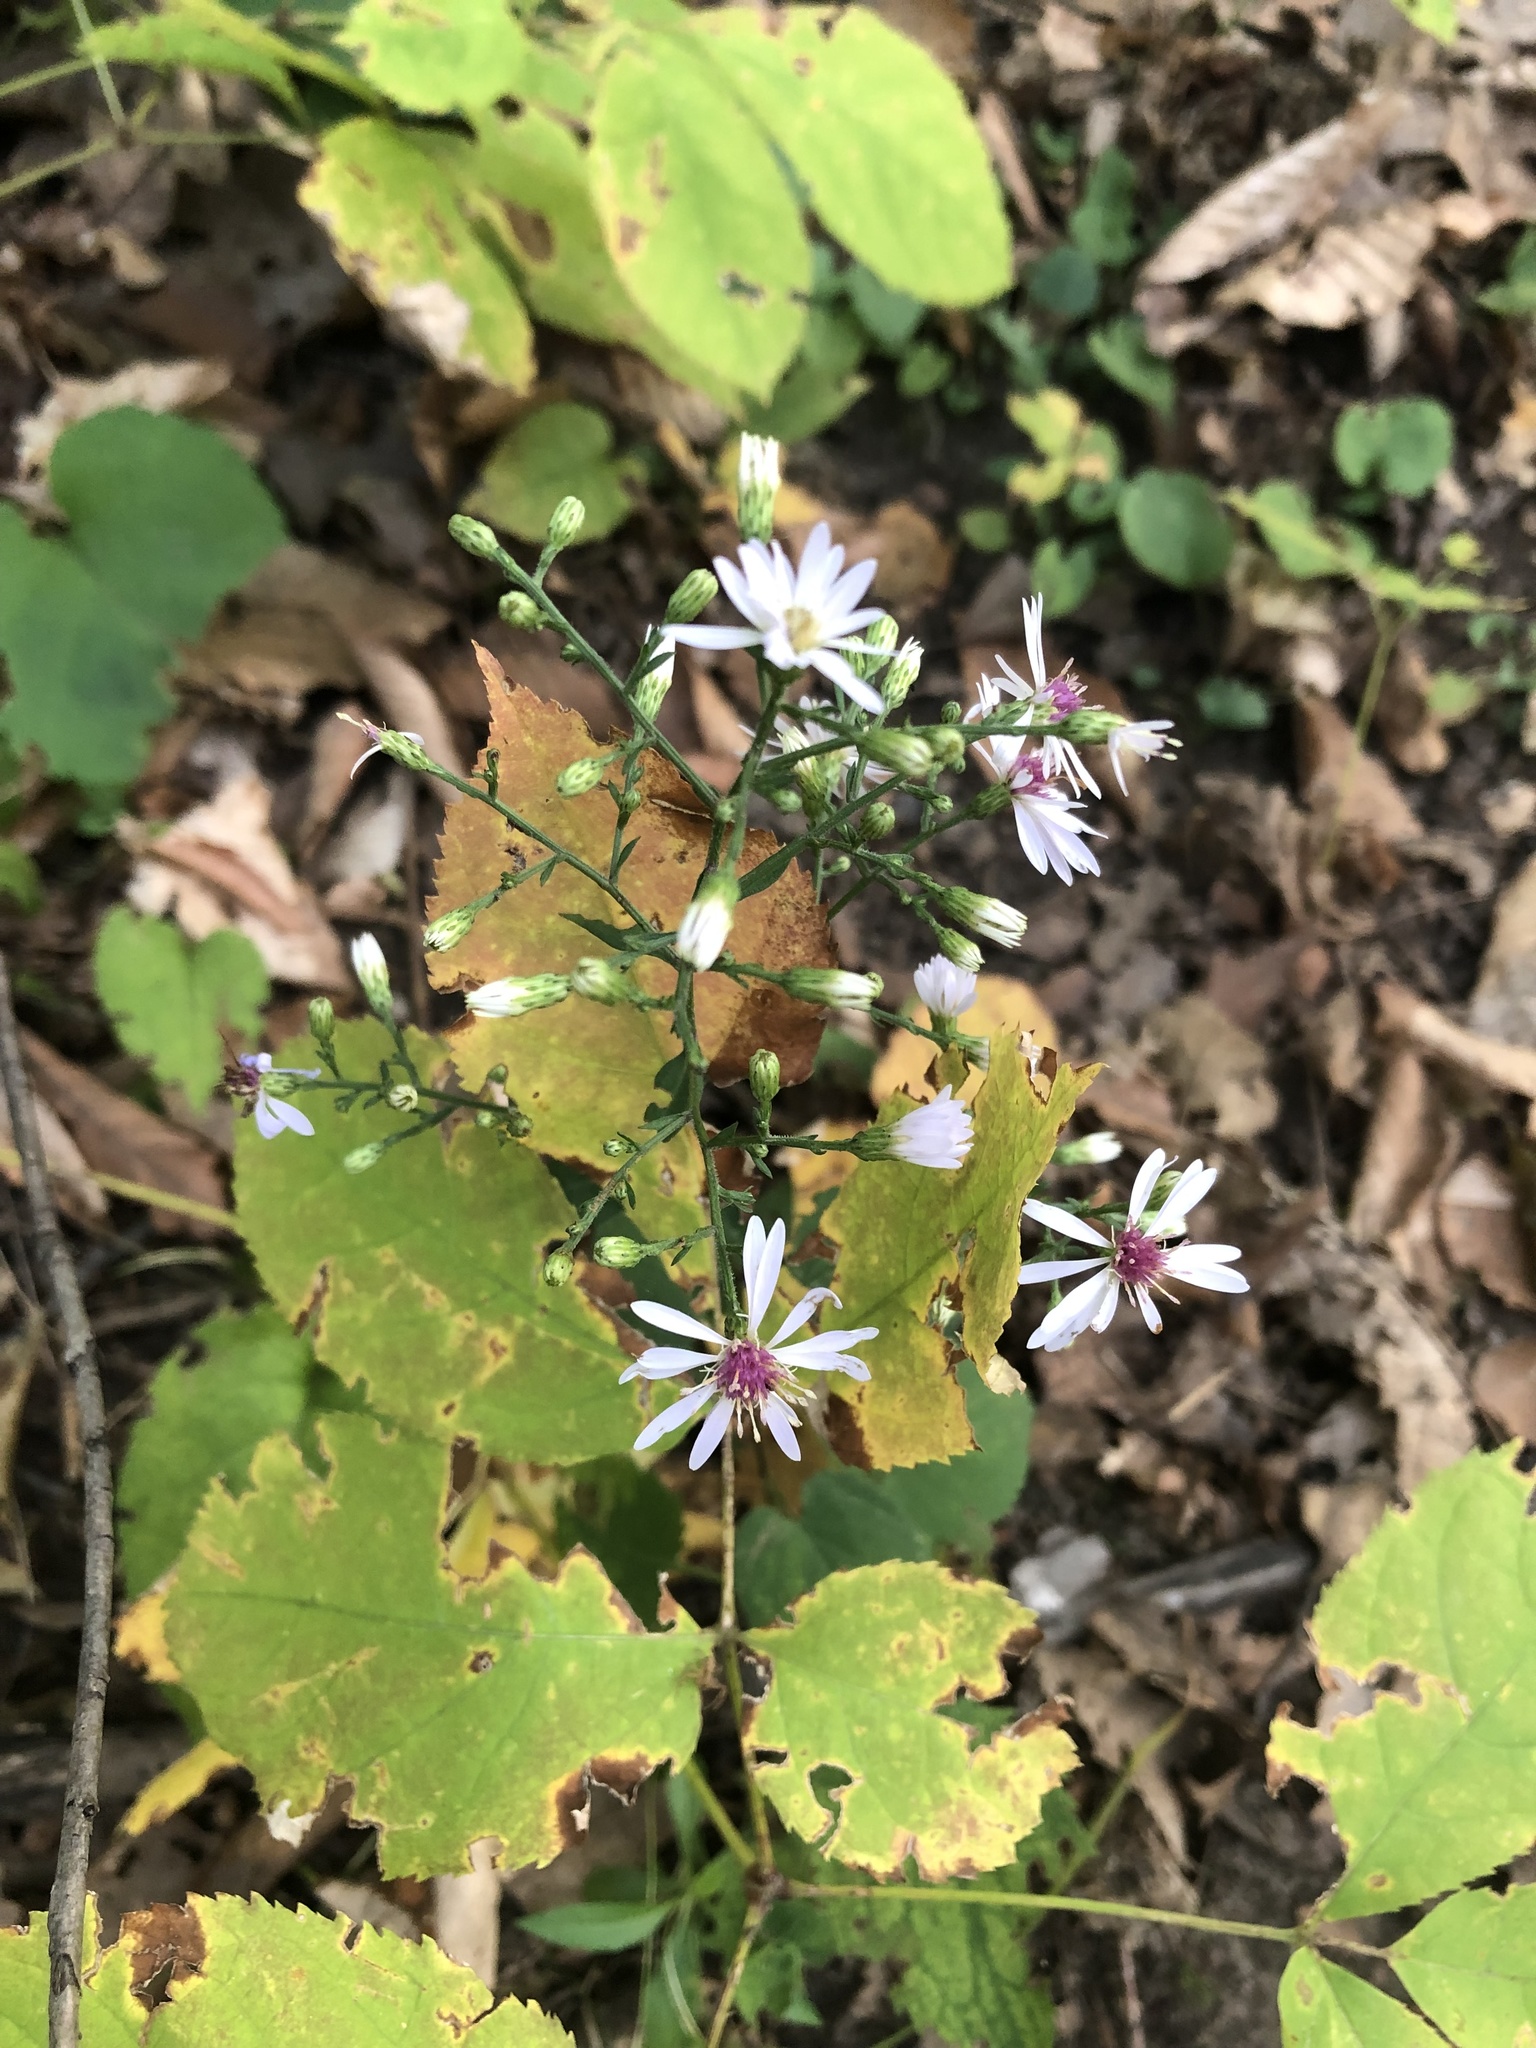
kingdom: Plantae
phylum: Tracheophyta
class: Magnoliopsida
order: Asterales
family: Asteraceae
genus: Symphyotrichum
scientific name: Symphyotrichum cordifolium
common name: Beeweed
